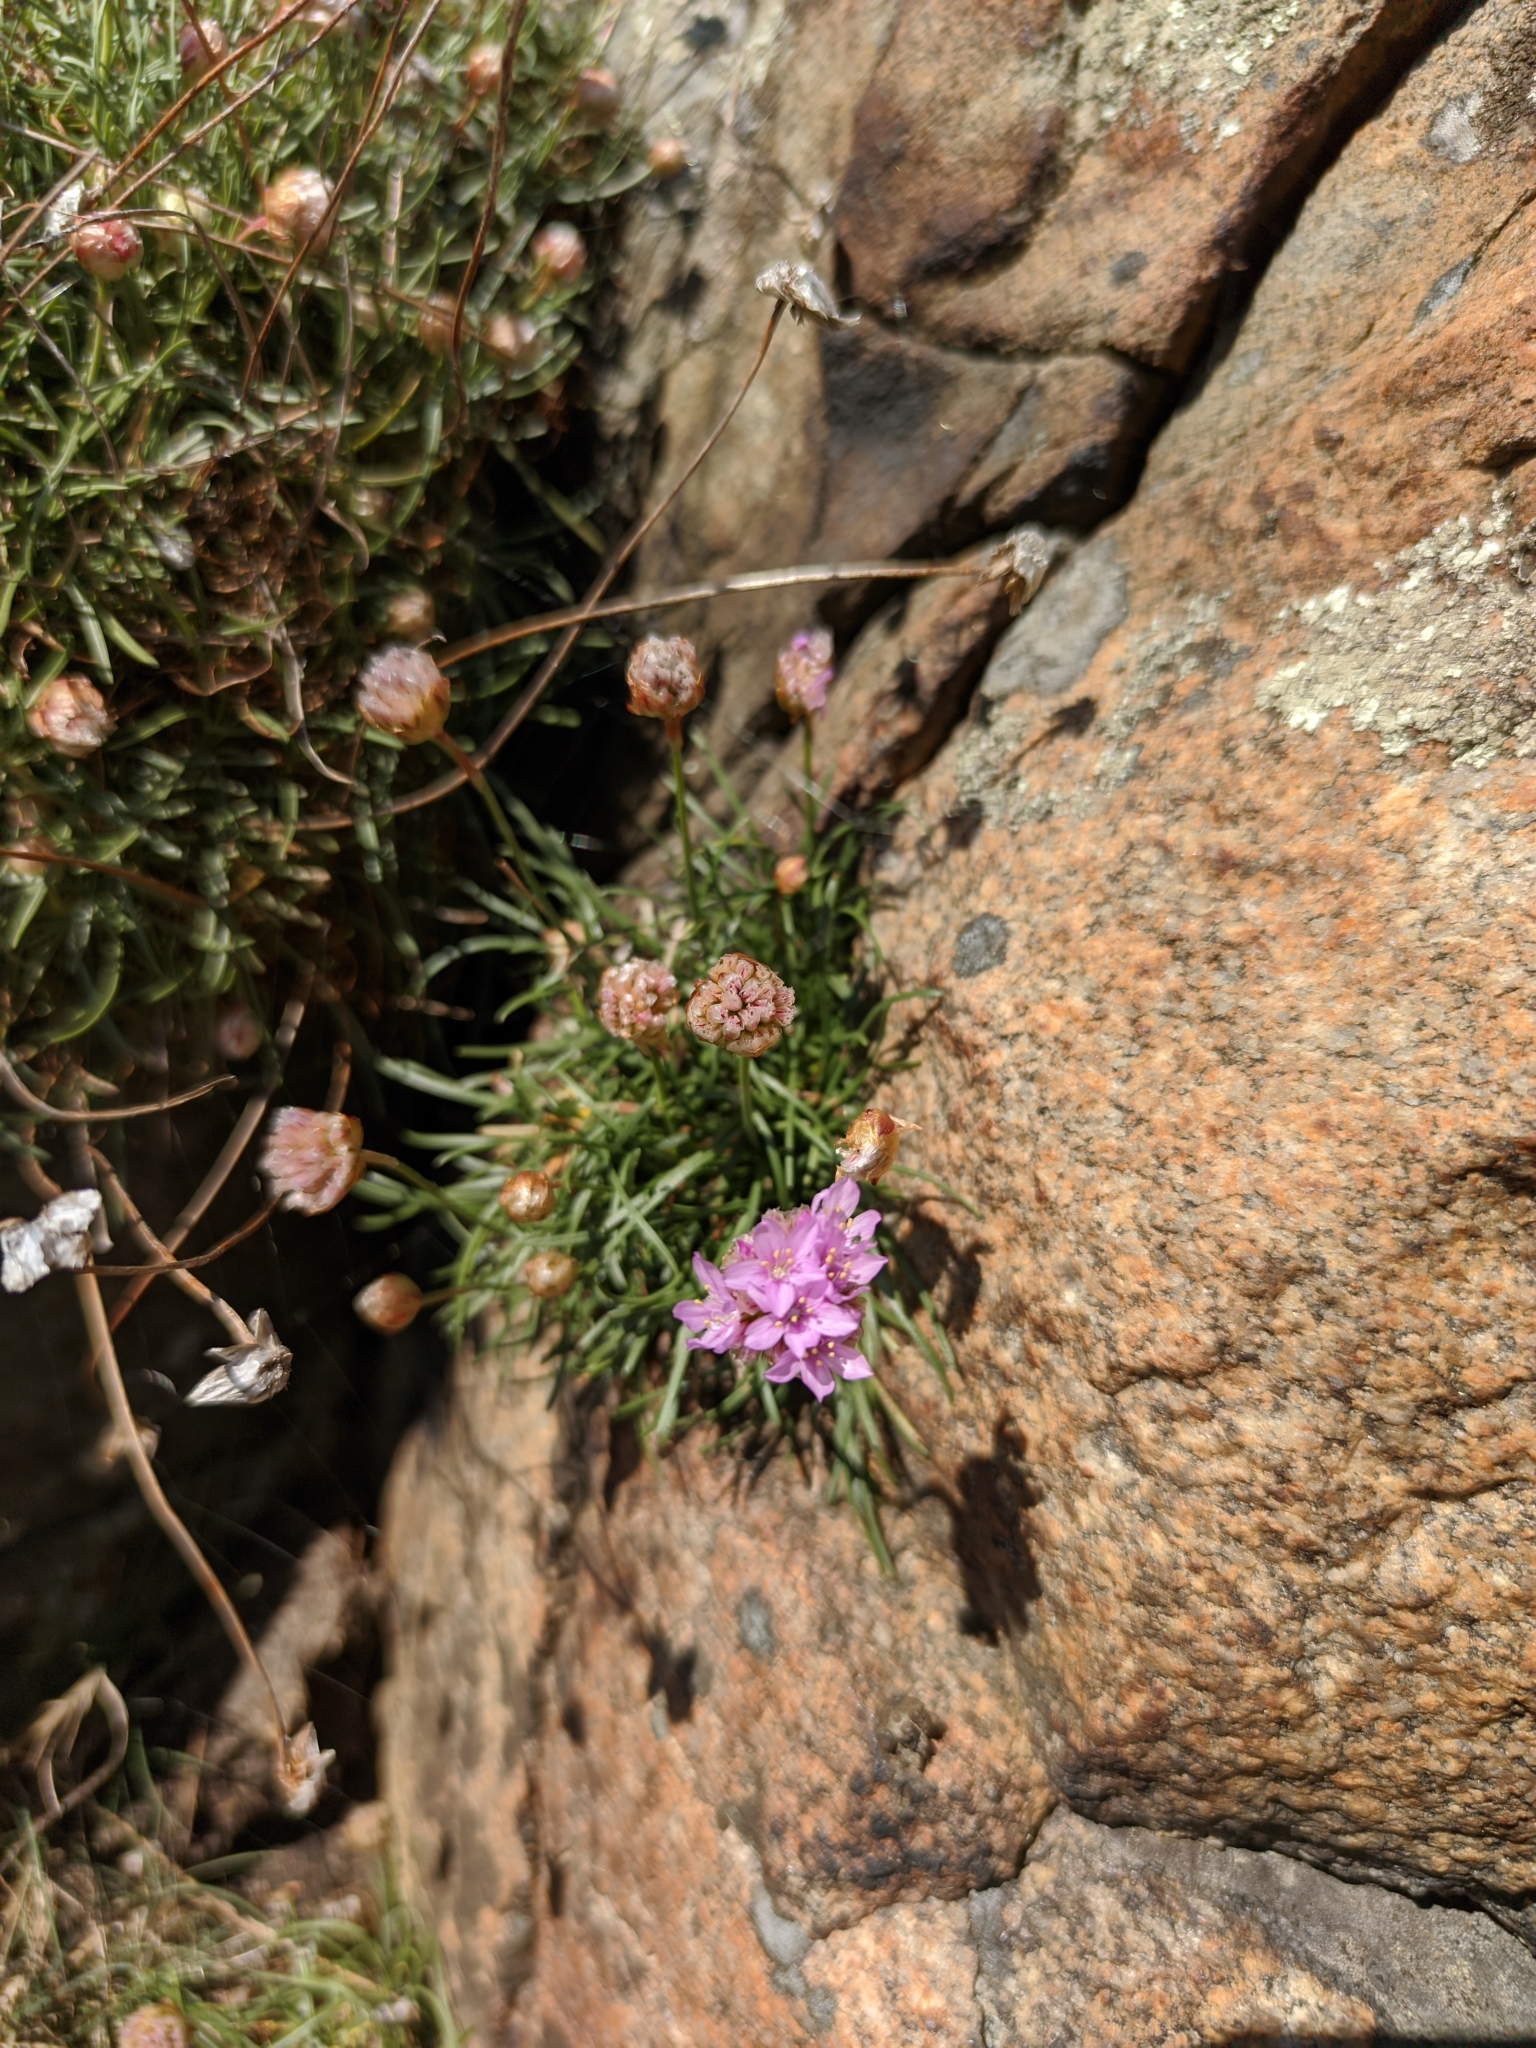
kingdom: Plantae
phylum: Tracheophyta
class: Magnoliopsida
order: Caryophyllales
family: Plumbaginaceae
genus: Armeria
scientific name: Armeria maritima
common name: Thrift
